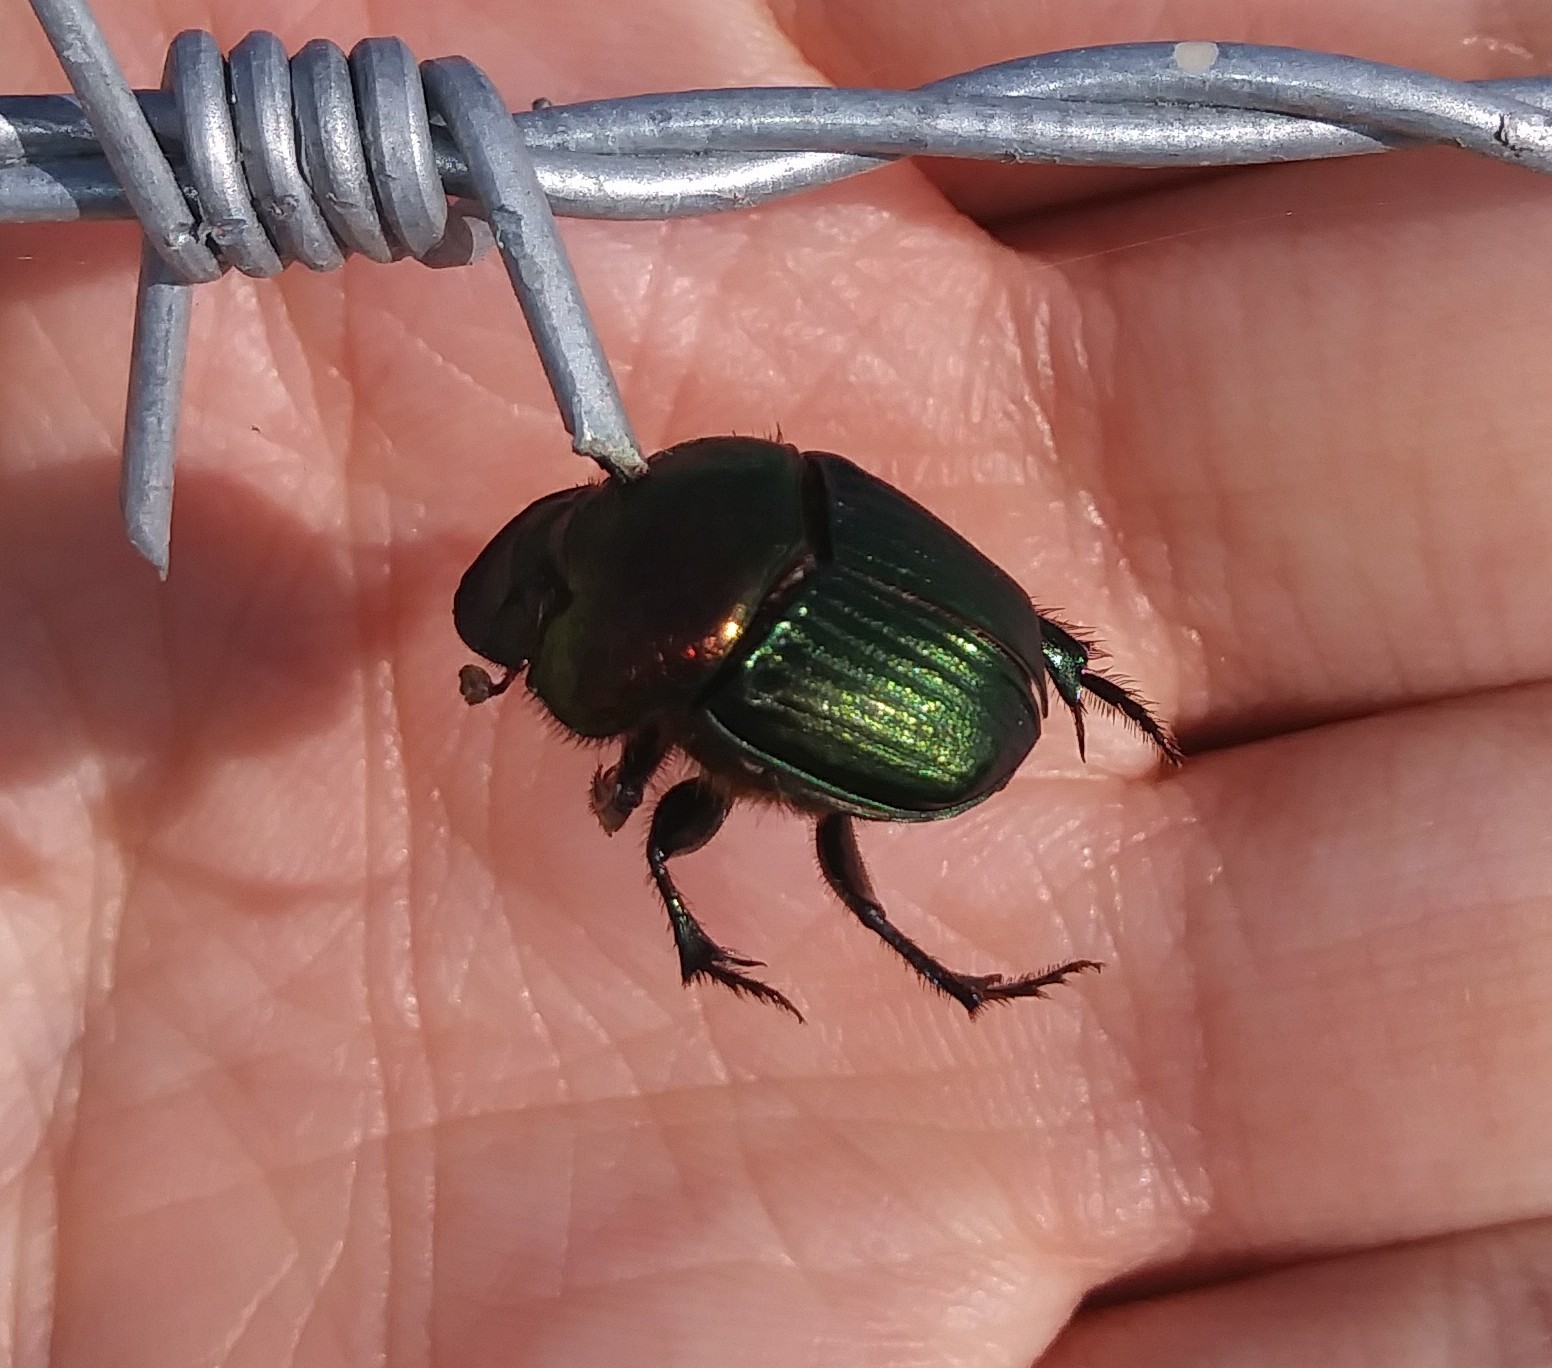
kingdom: Animalia
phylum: Arthropoda
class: Insecta
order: Coleoptera
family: Scarabaeidae
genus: Phanaeus
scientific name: Phanaeus igneus
